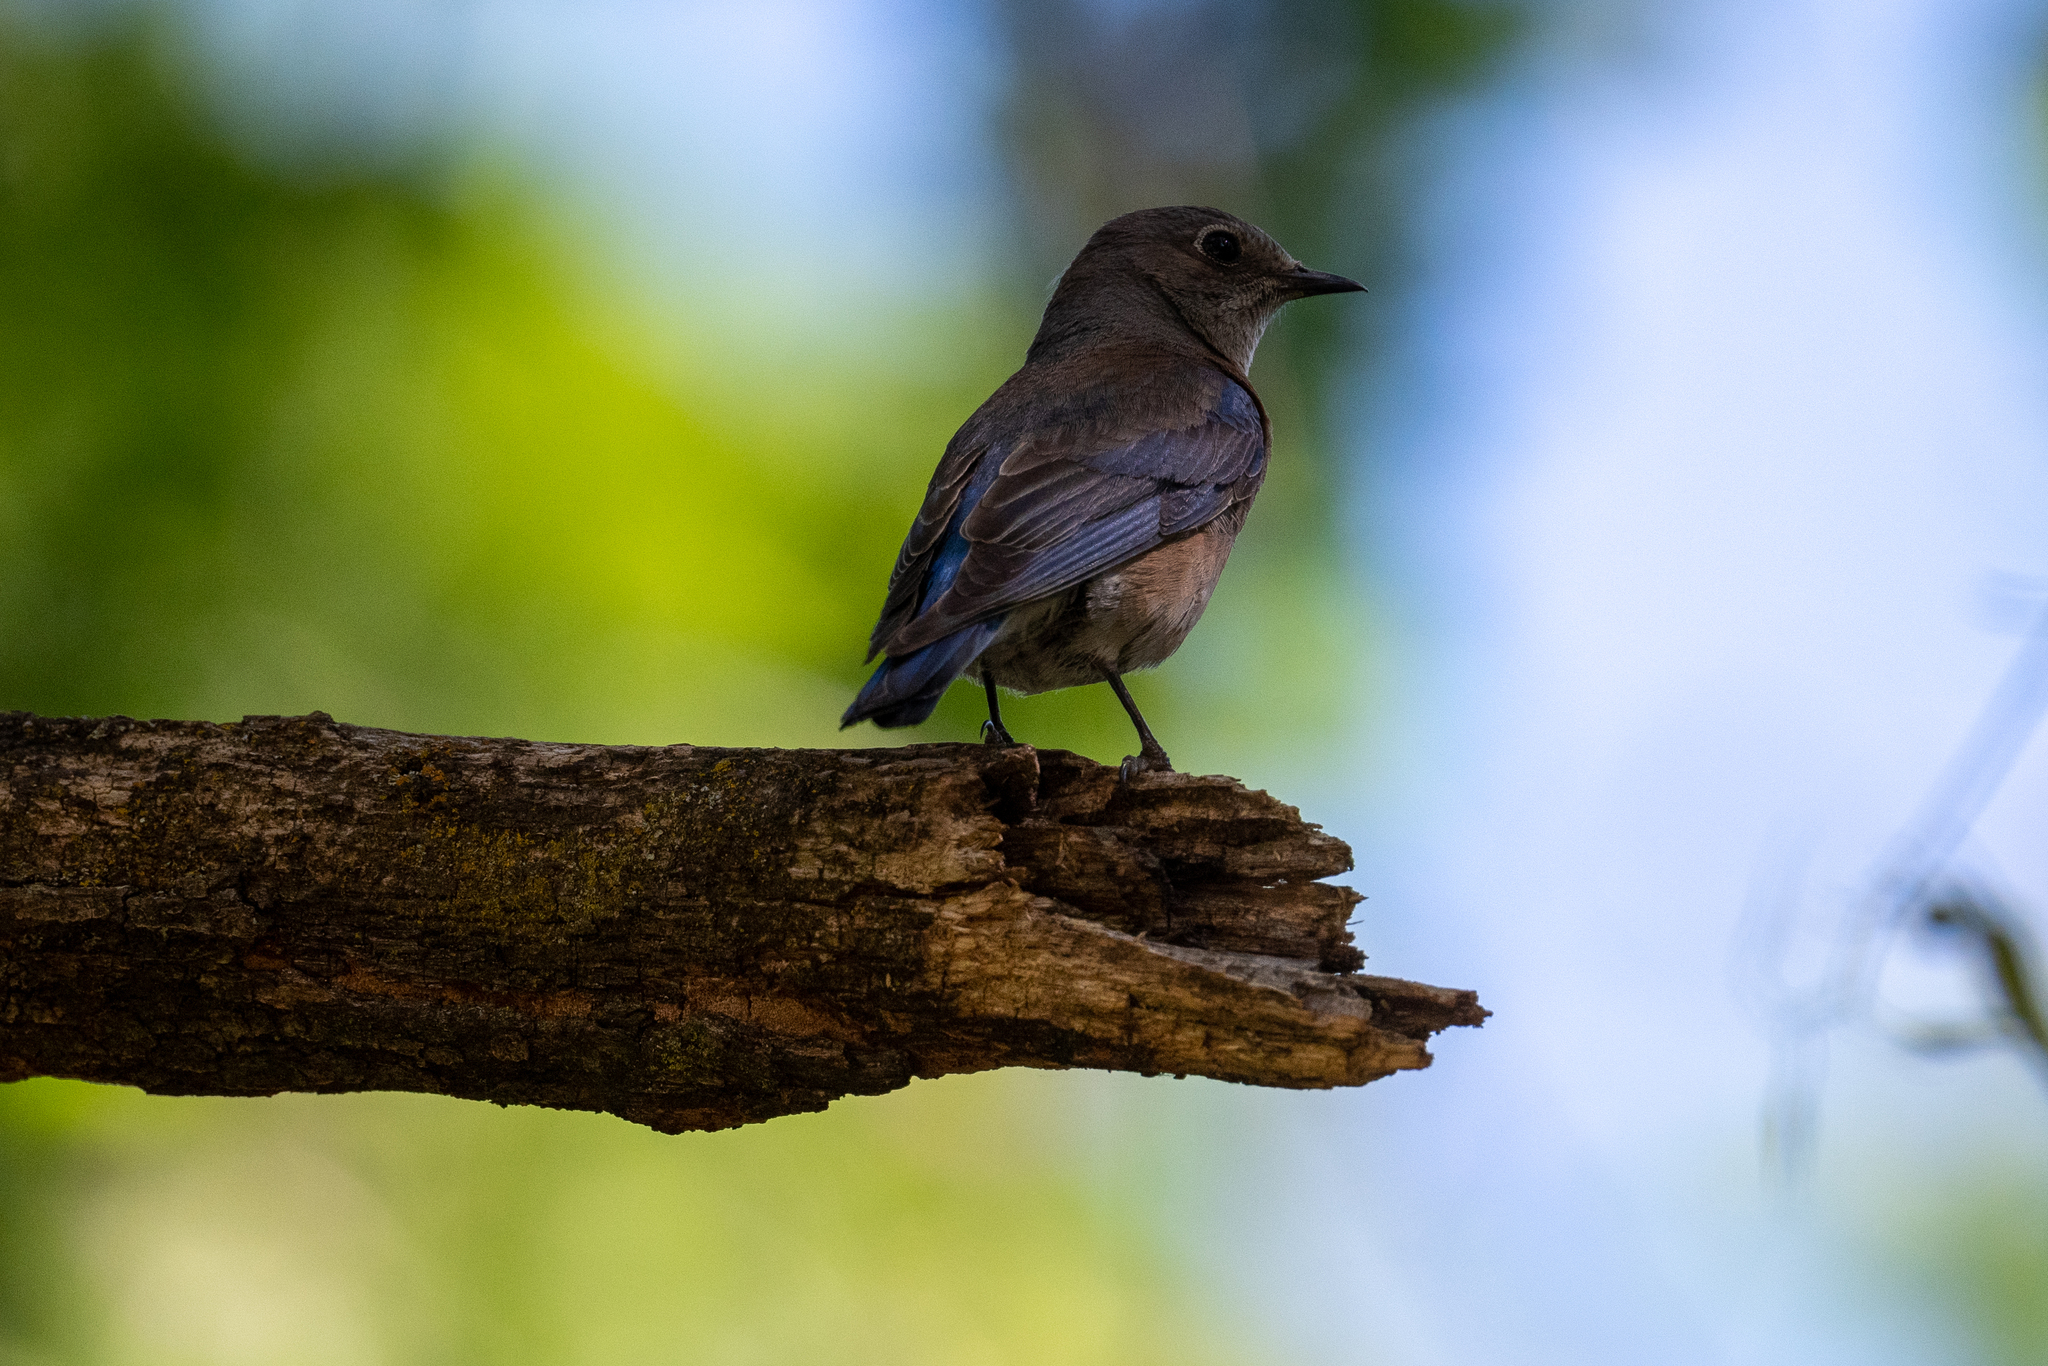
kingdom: Animalia
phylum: Chordata
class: Aves
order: Passeriformes
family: Turdidae
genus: Sialia
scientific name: Sialia mexicana
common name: Western bluebird
